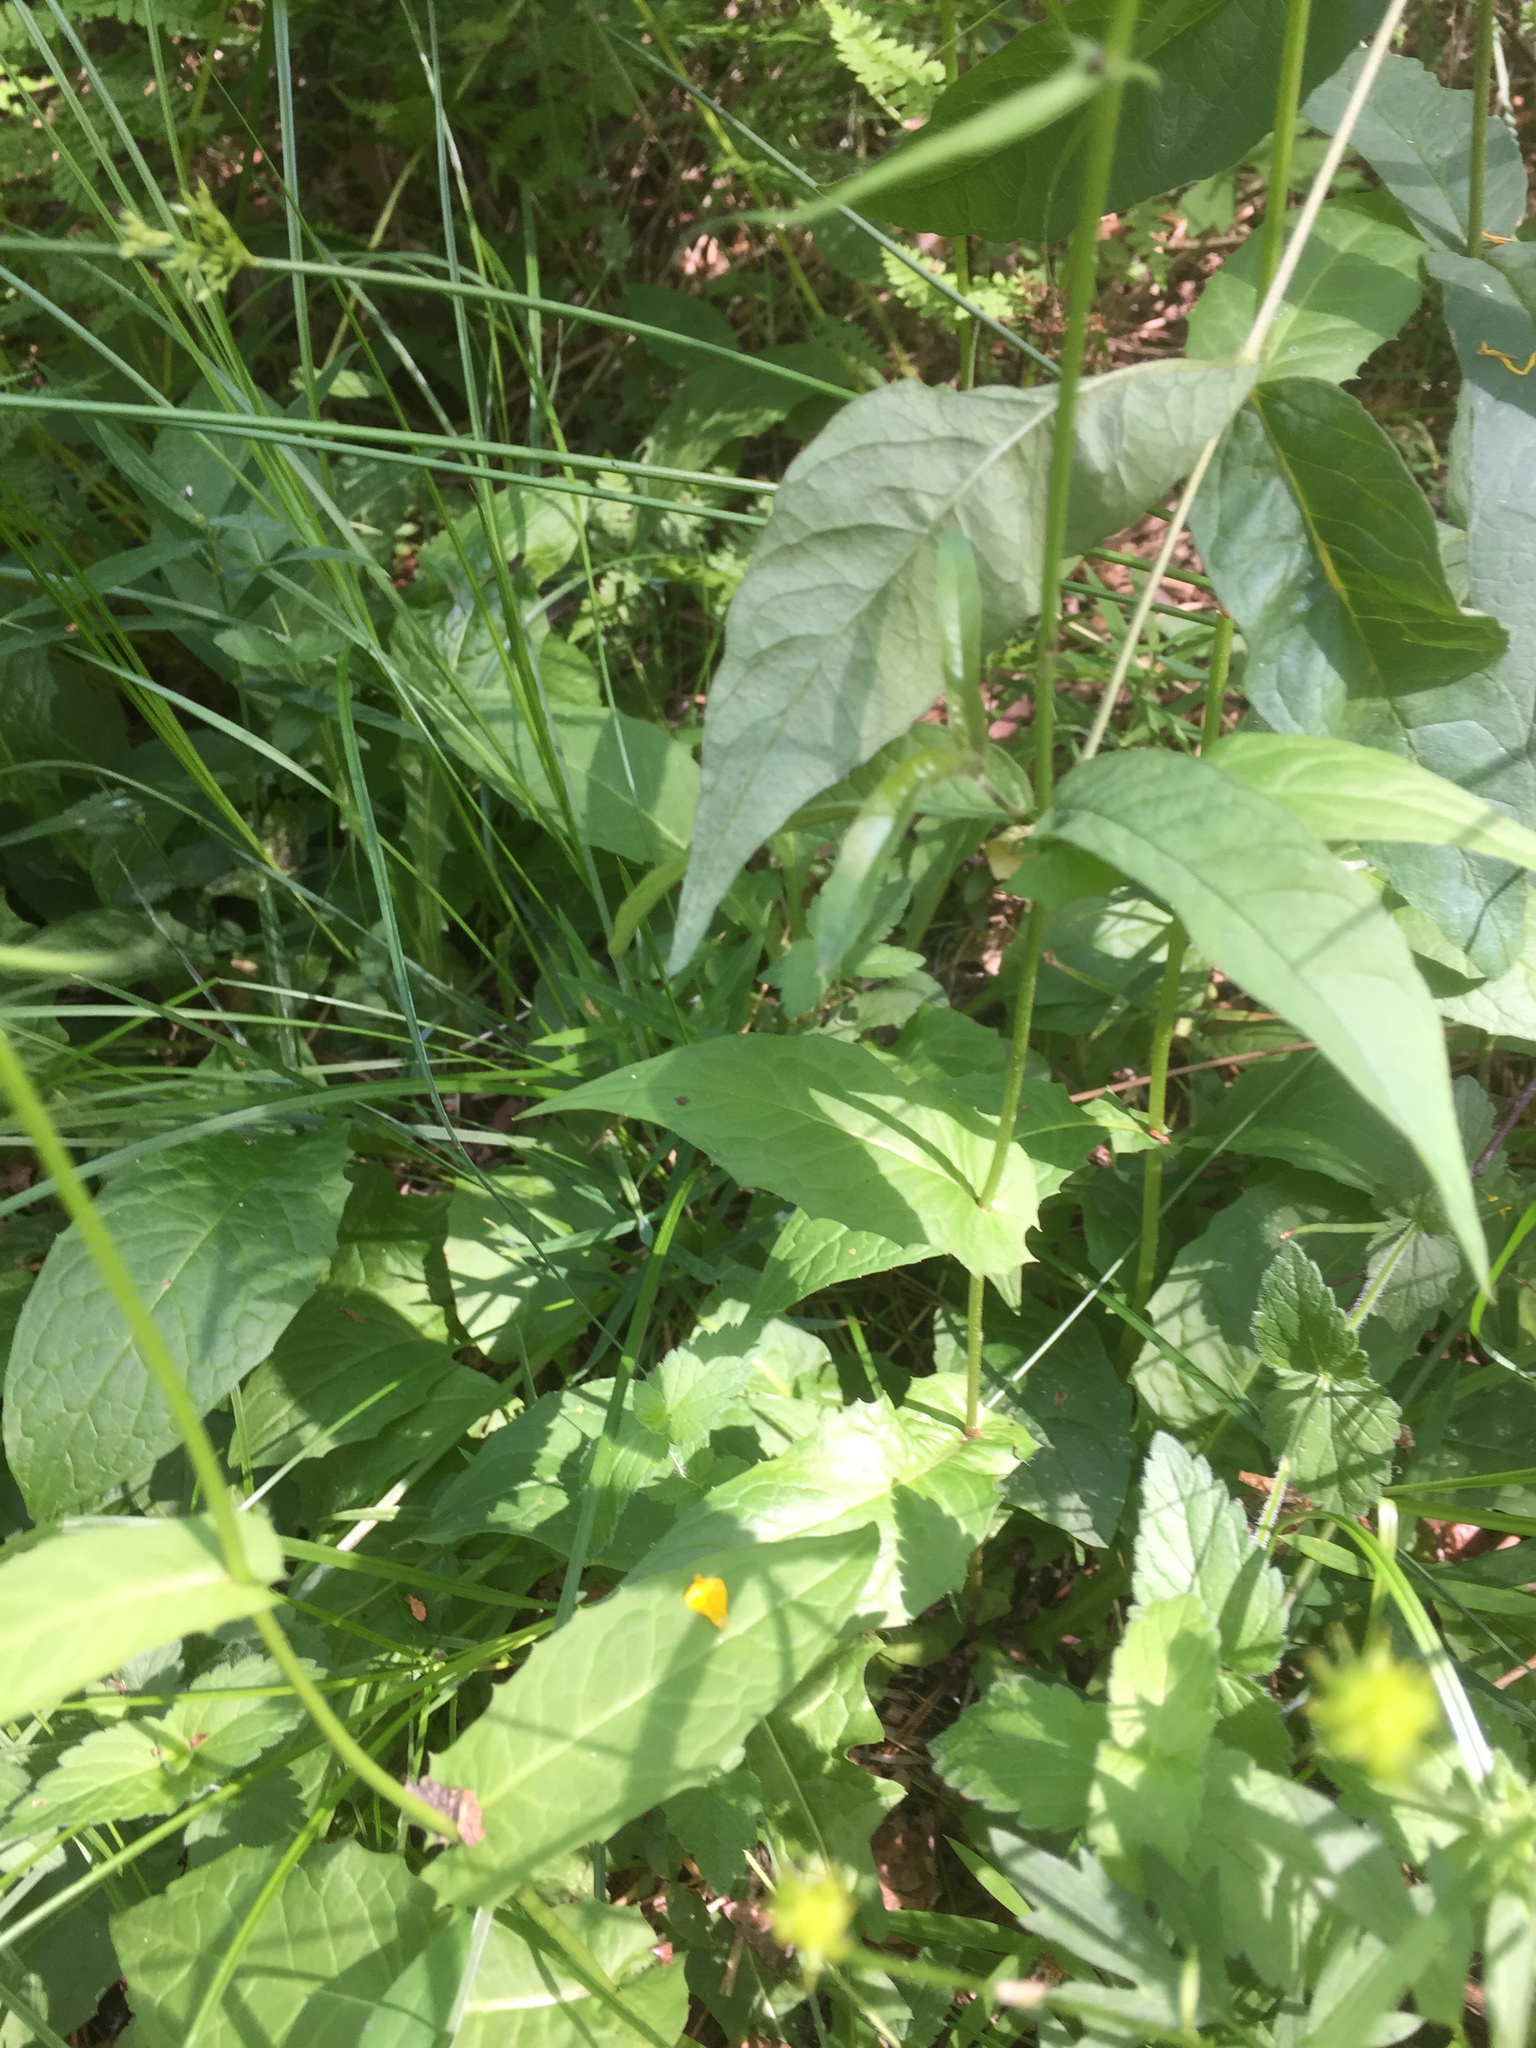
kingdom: Plantae
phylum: Tracheophyta
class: Magnoliopsida
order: Asterales
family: Asteraceae
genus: Crepis
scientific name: Crepis paludosa
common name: Marsh hawk's-beard
